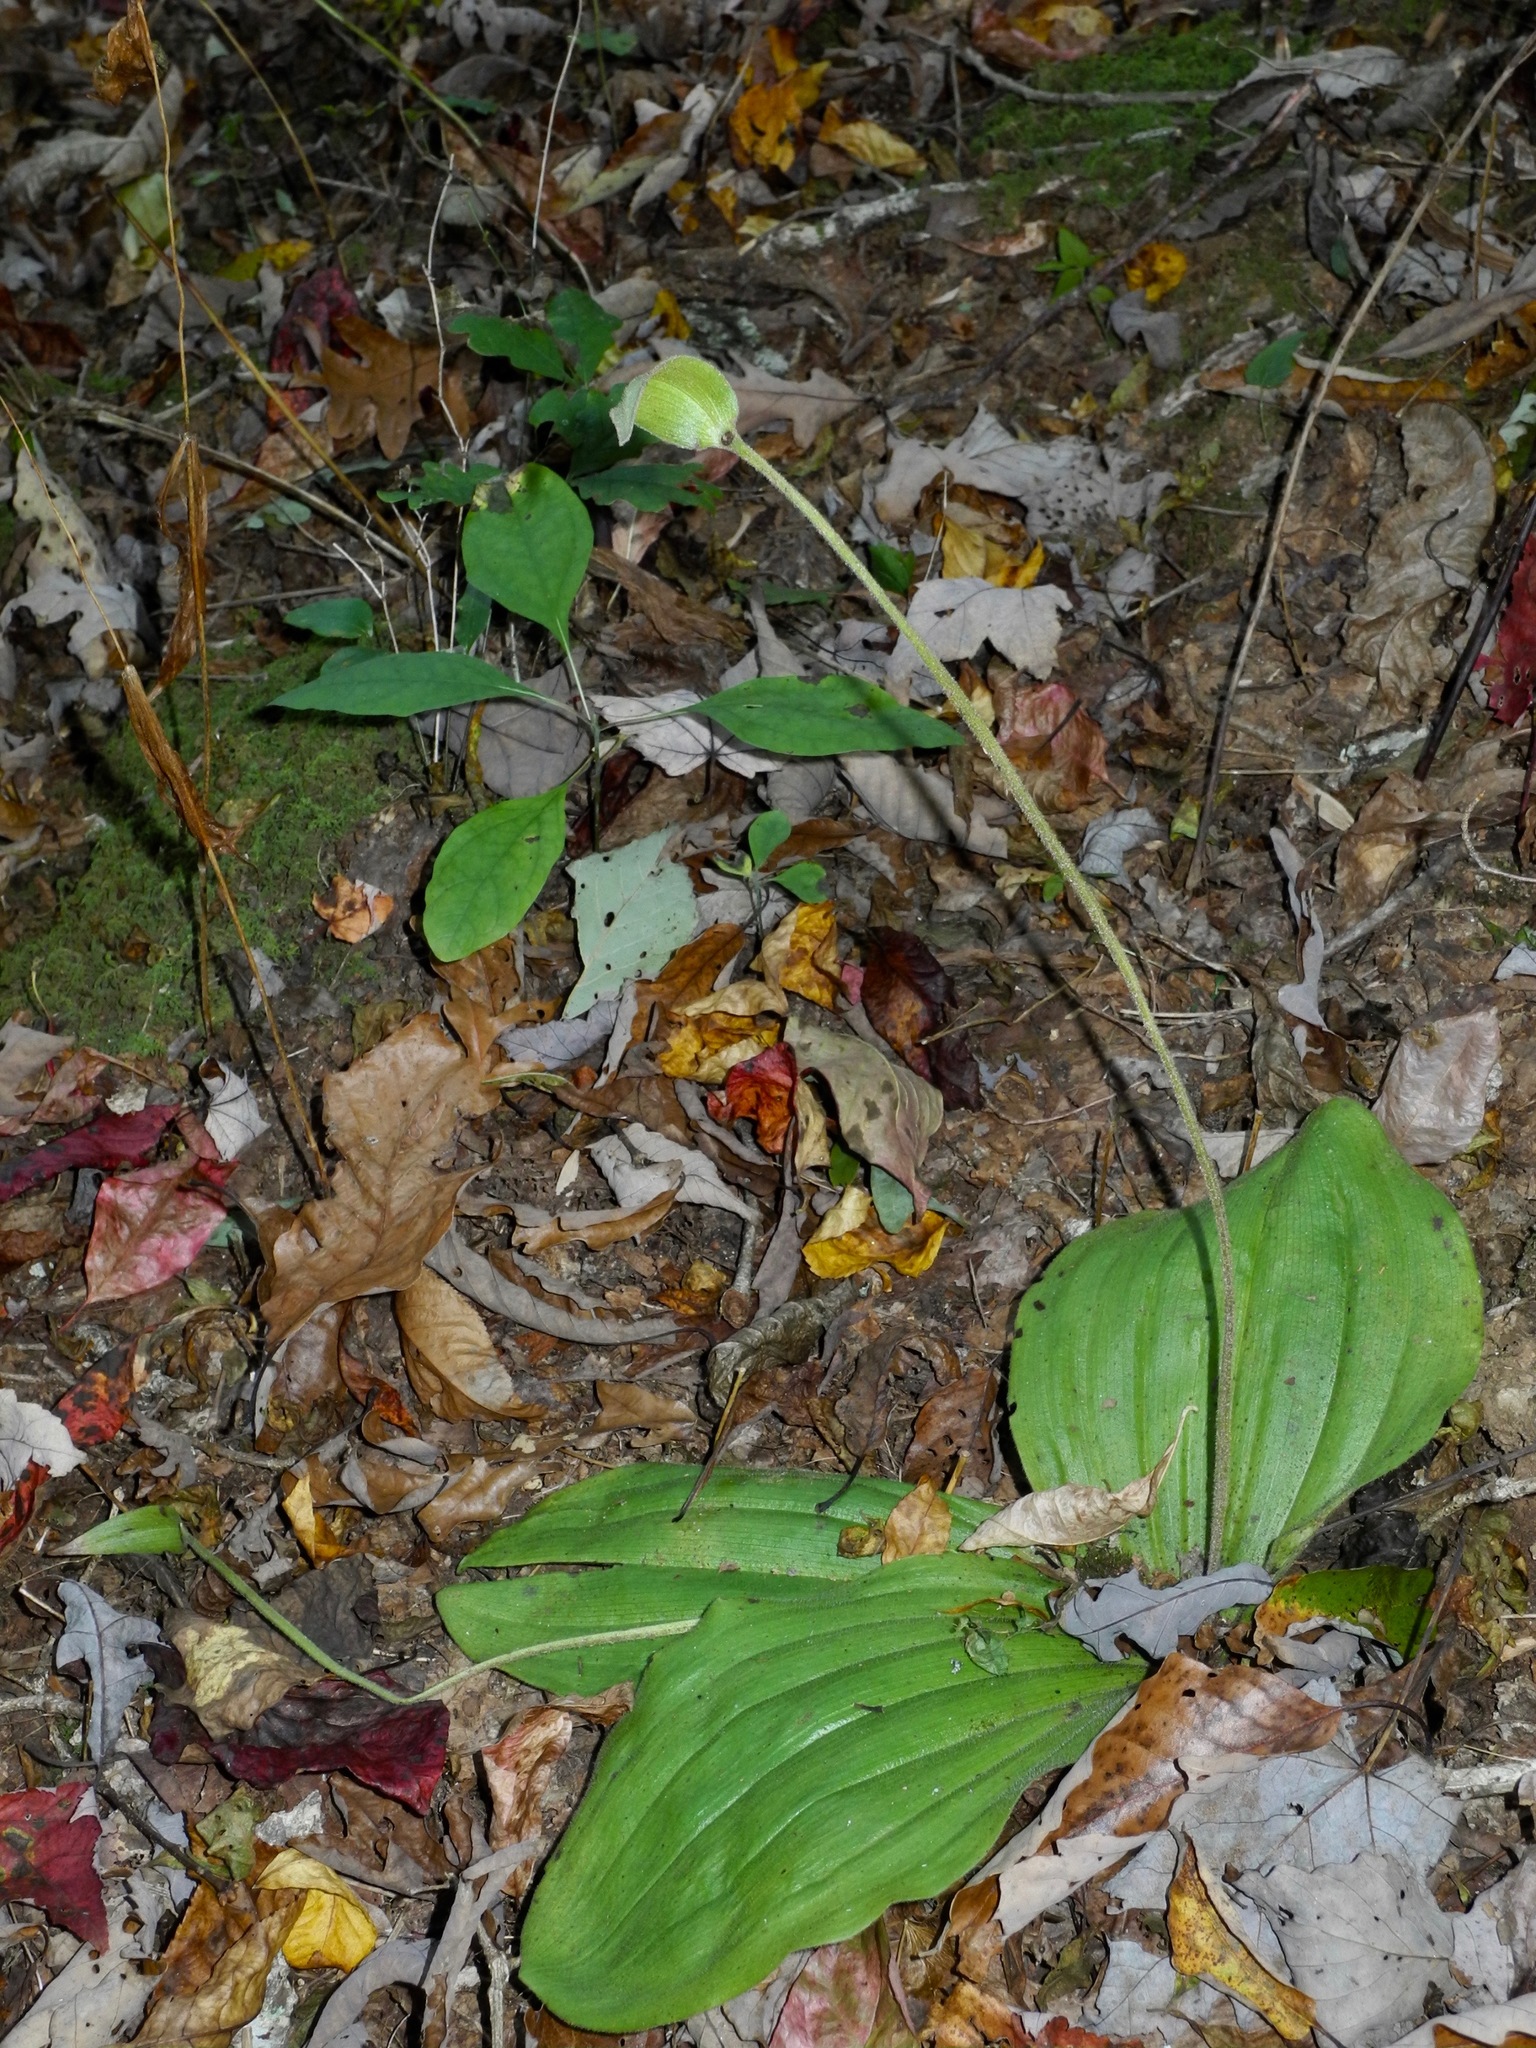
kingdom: Plantae
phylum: Tracheophyta
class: Liliopsida
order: Asparagales
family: Orchidaceae
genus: Cypripedium
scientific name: Cypripedium acaule
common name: Pink lady's-slipper
